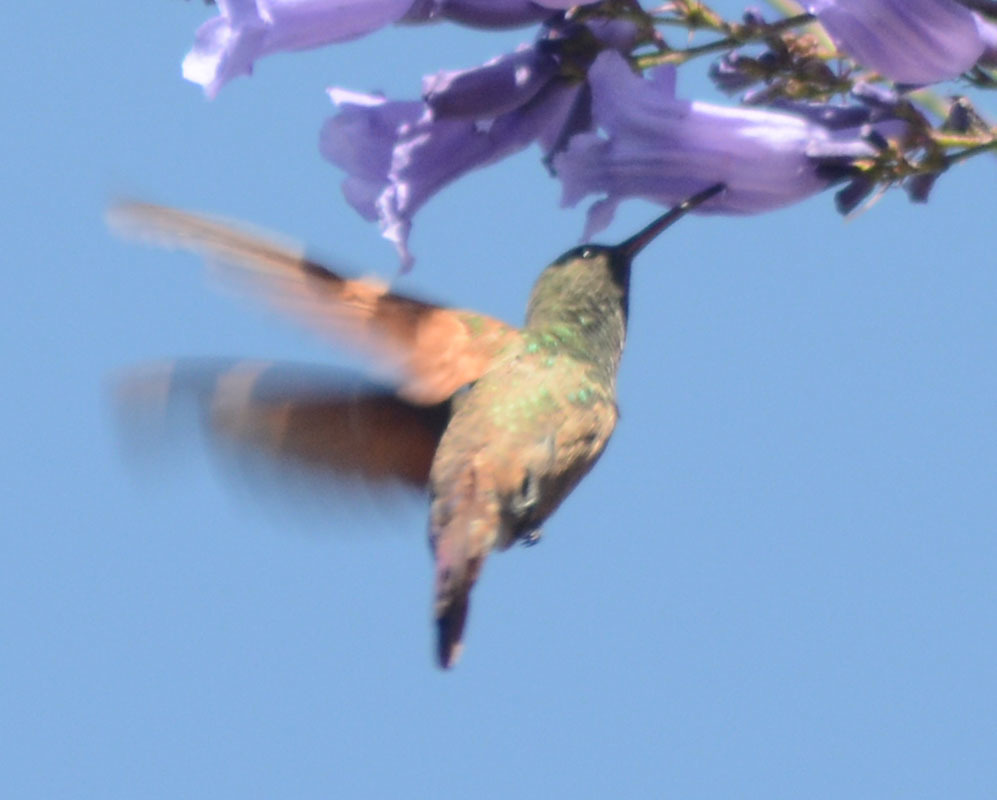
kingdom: Animalia
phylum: Chordata
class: Aves
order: Apodiformes
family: Trochilidae
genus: Saucerottia
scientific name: Saucerottia beryllina
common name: Berylline hummingbird
